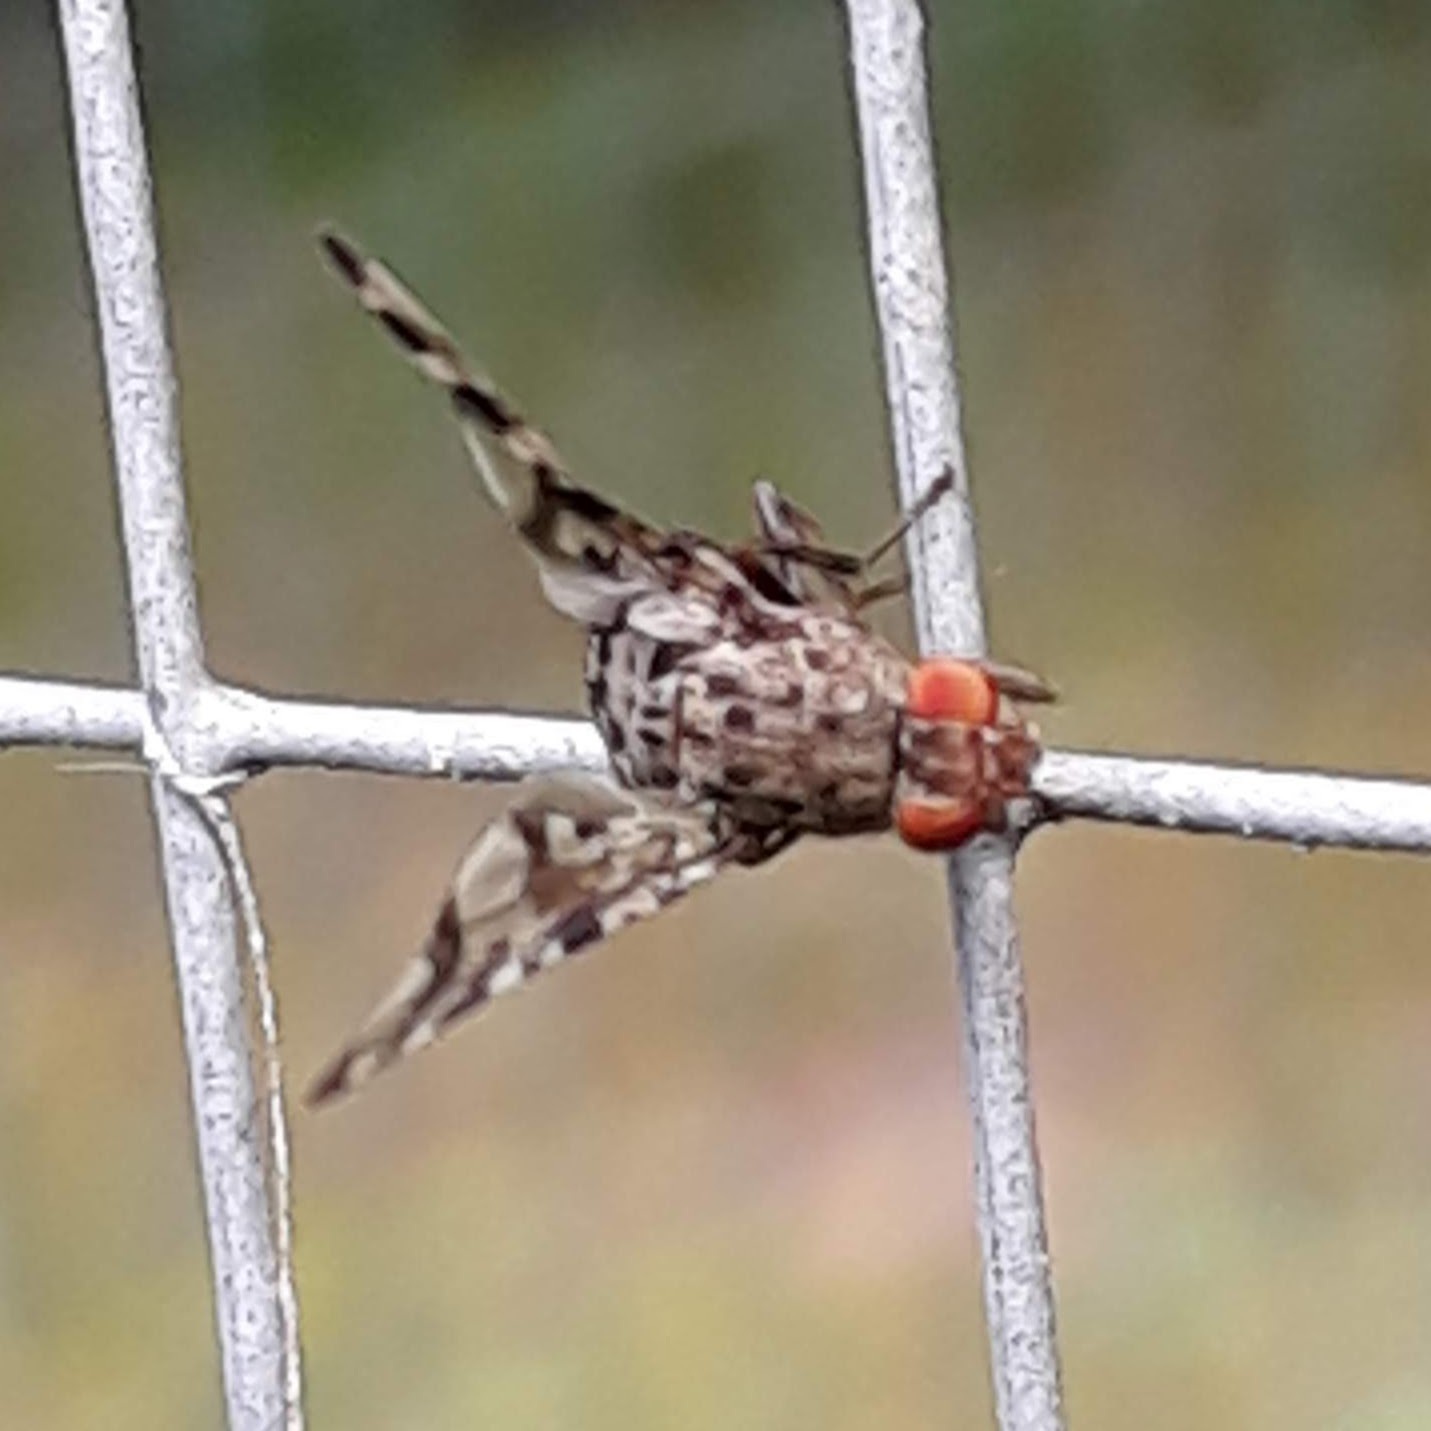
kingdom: Animalia
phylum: Arthropoda
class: Insecta
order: Diptera
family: Ulidiidae
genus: Pseudotephritis
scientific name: Pseudotephritis approximata
